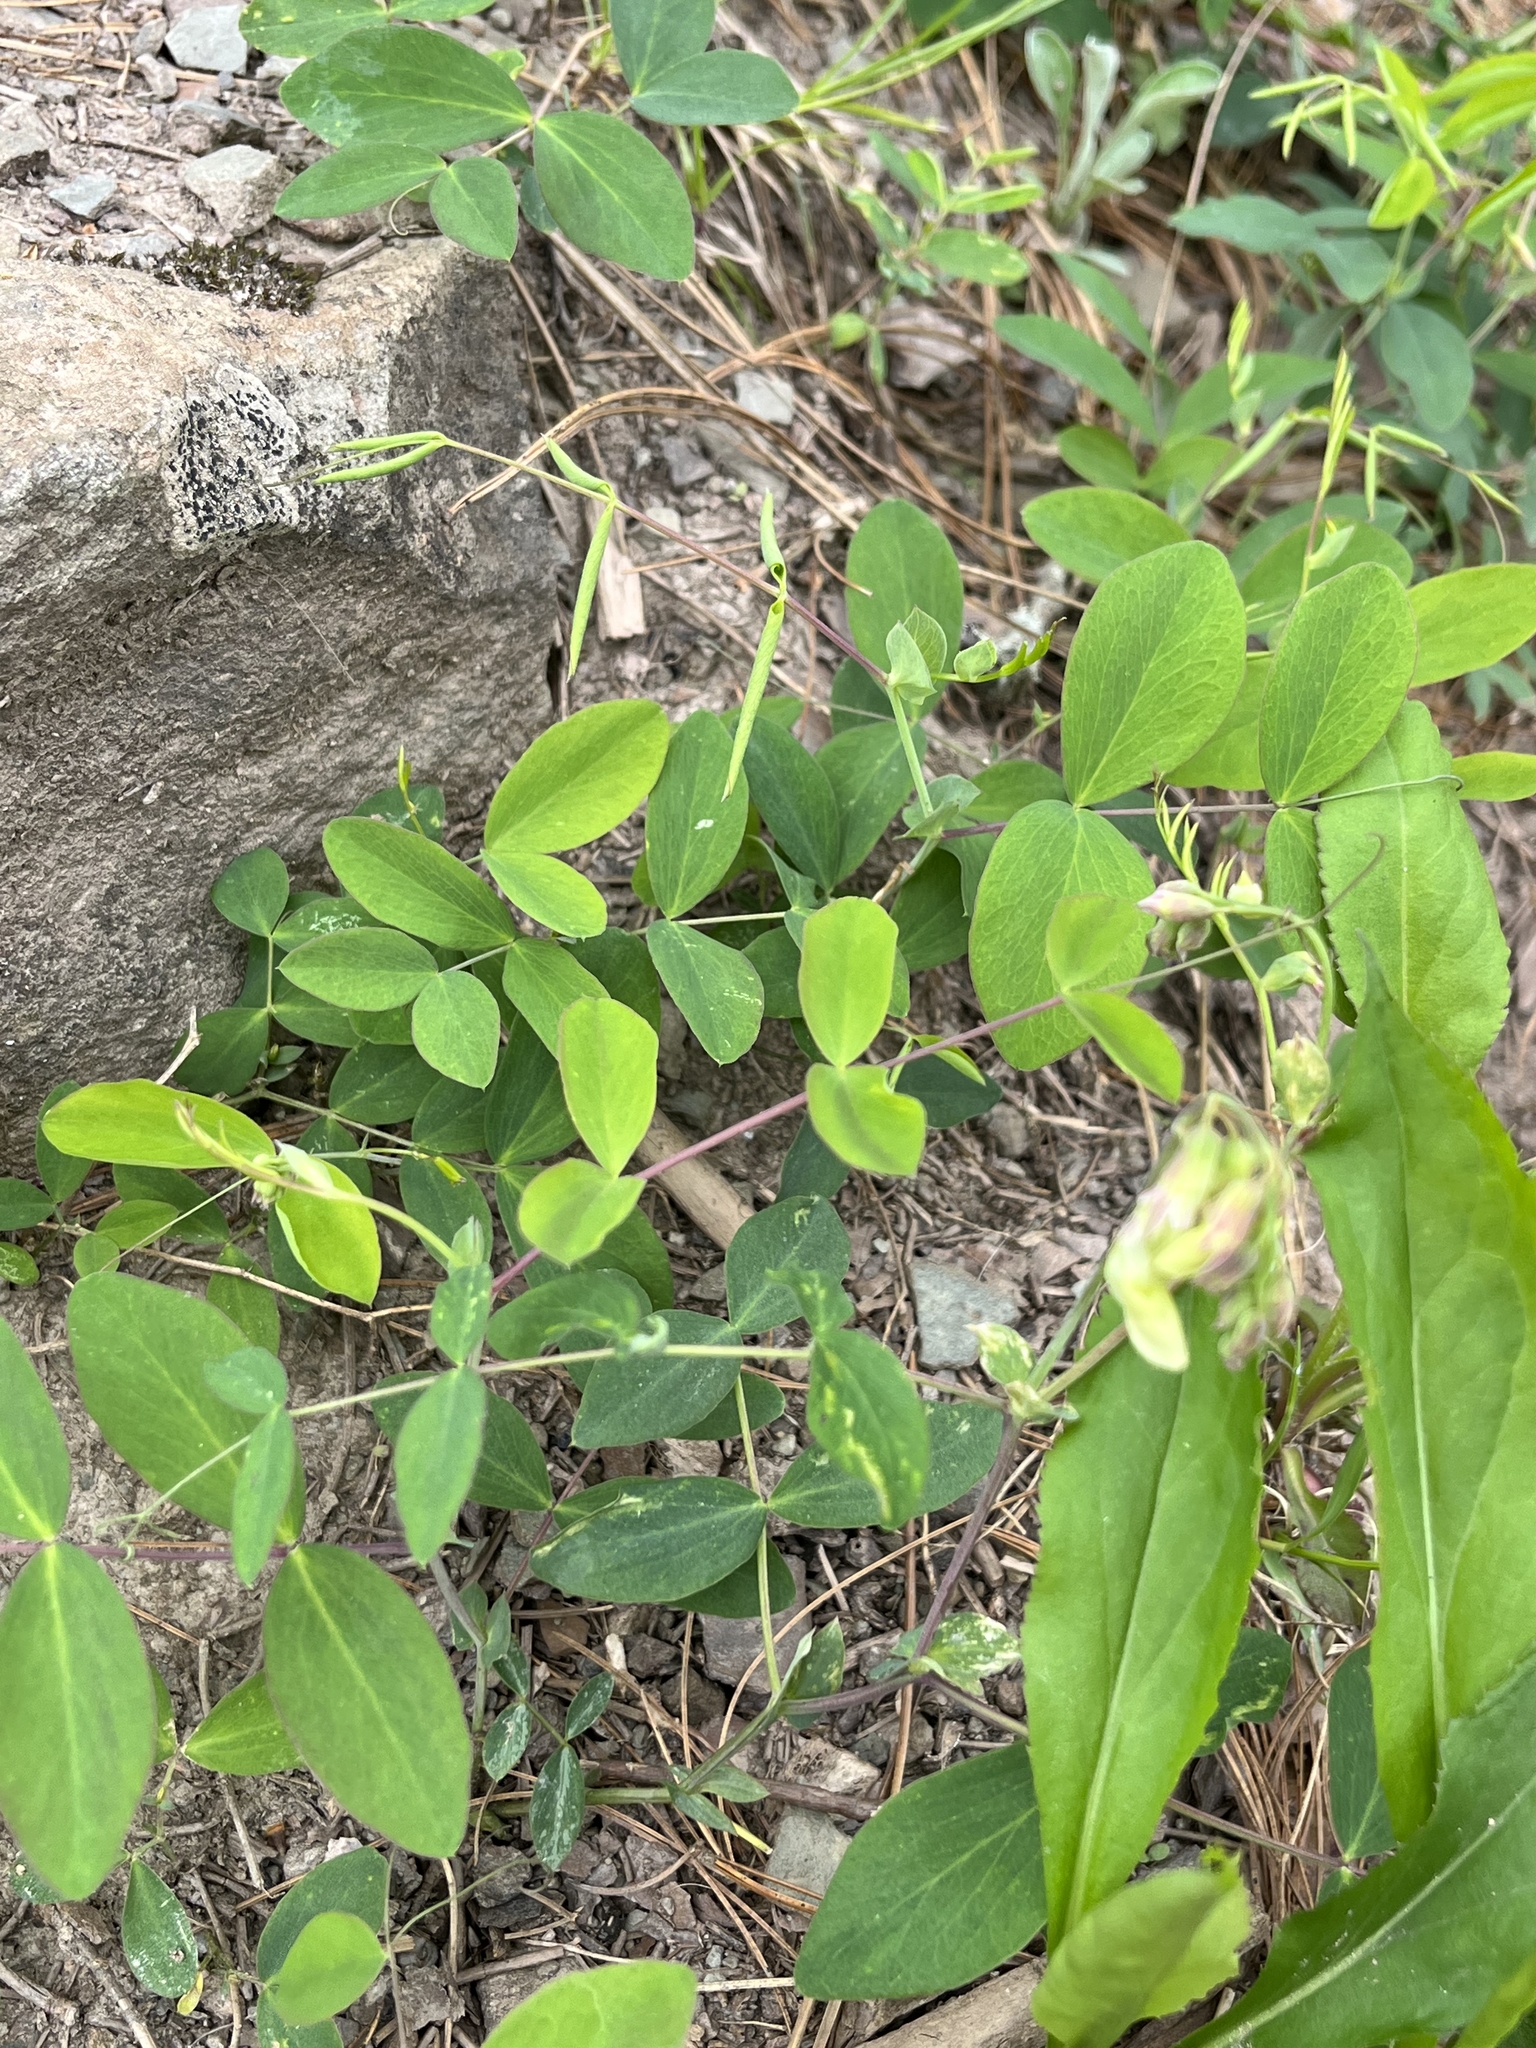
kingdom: Plantae
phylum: Tracheophyta
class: Magnoliopsida
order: Fabales
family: Fabaceae
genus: Lathyrus
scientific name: Lathyrus ochroleucus
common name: Pale vetchling
